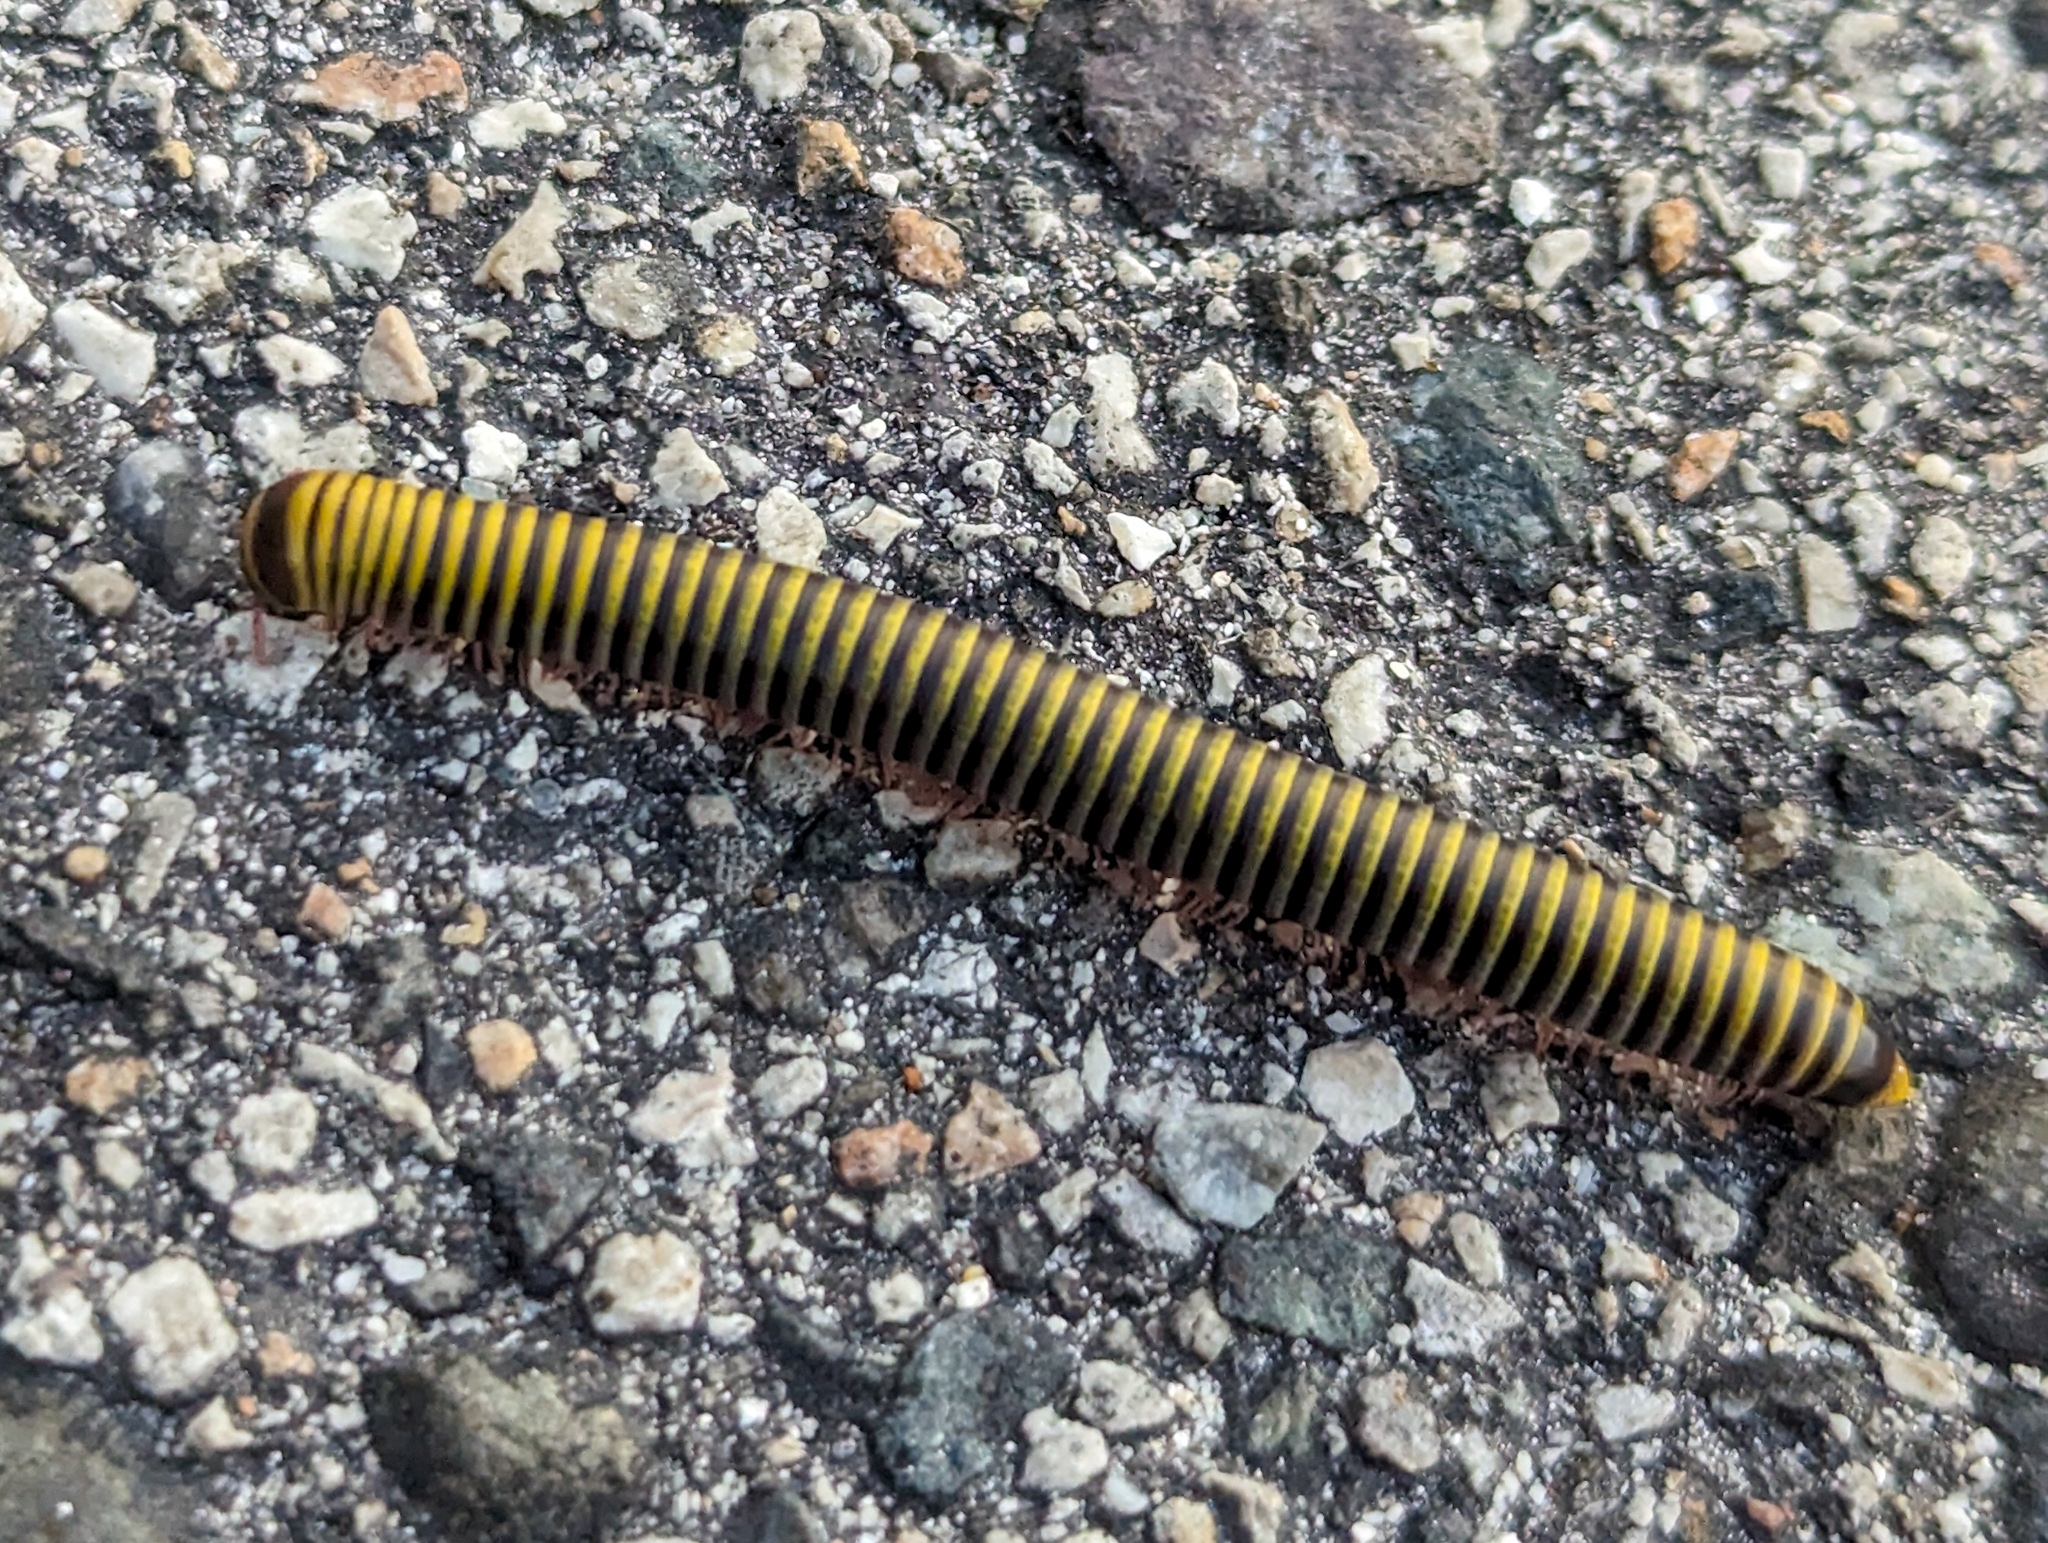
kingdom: Animalia
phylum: Arthropoda
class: Diplopoda
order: Spirobolida
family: Rhinocricidae
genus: Anadenobolus
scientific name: Anadenobolus monilicornis
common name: Caribbean millipede
